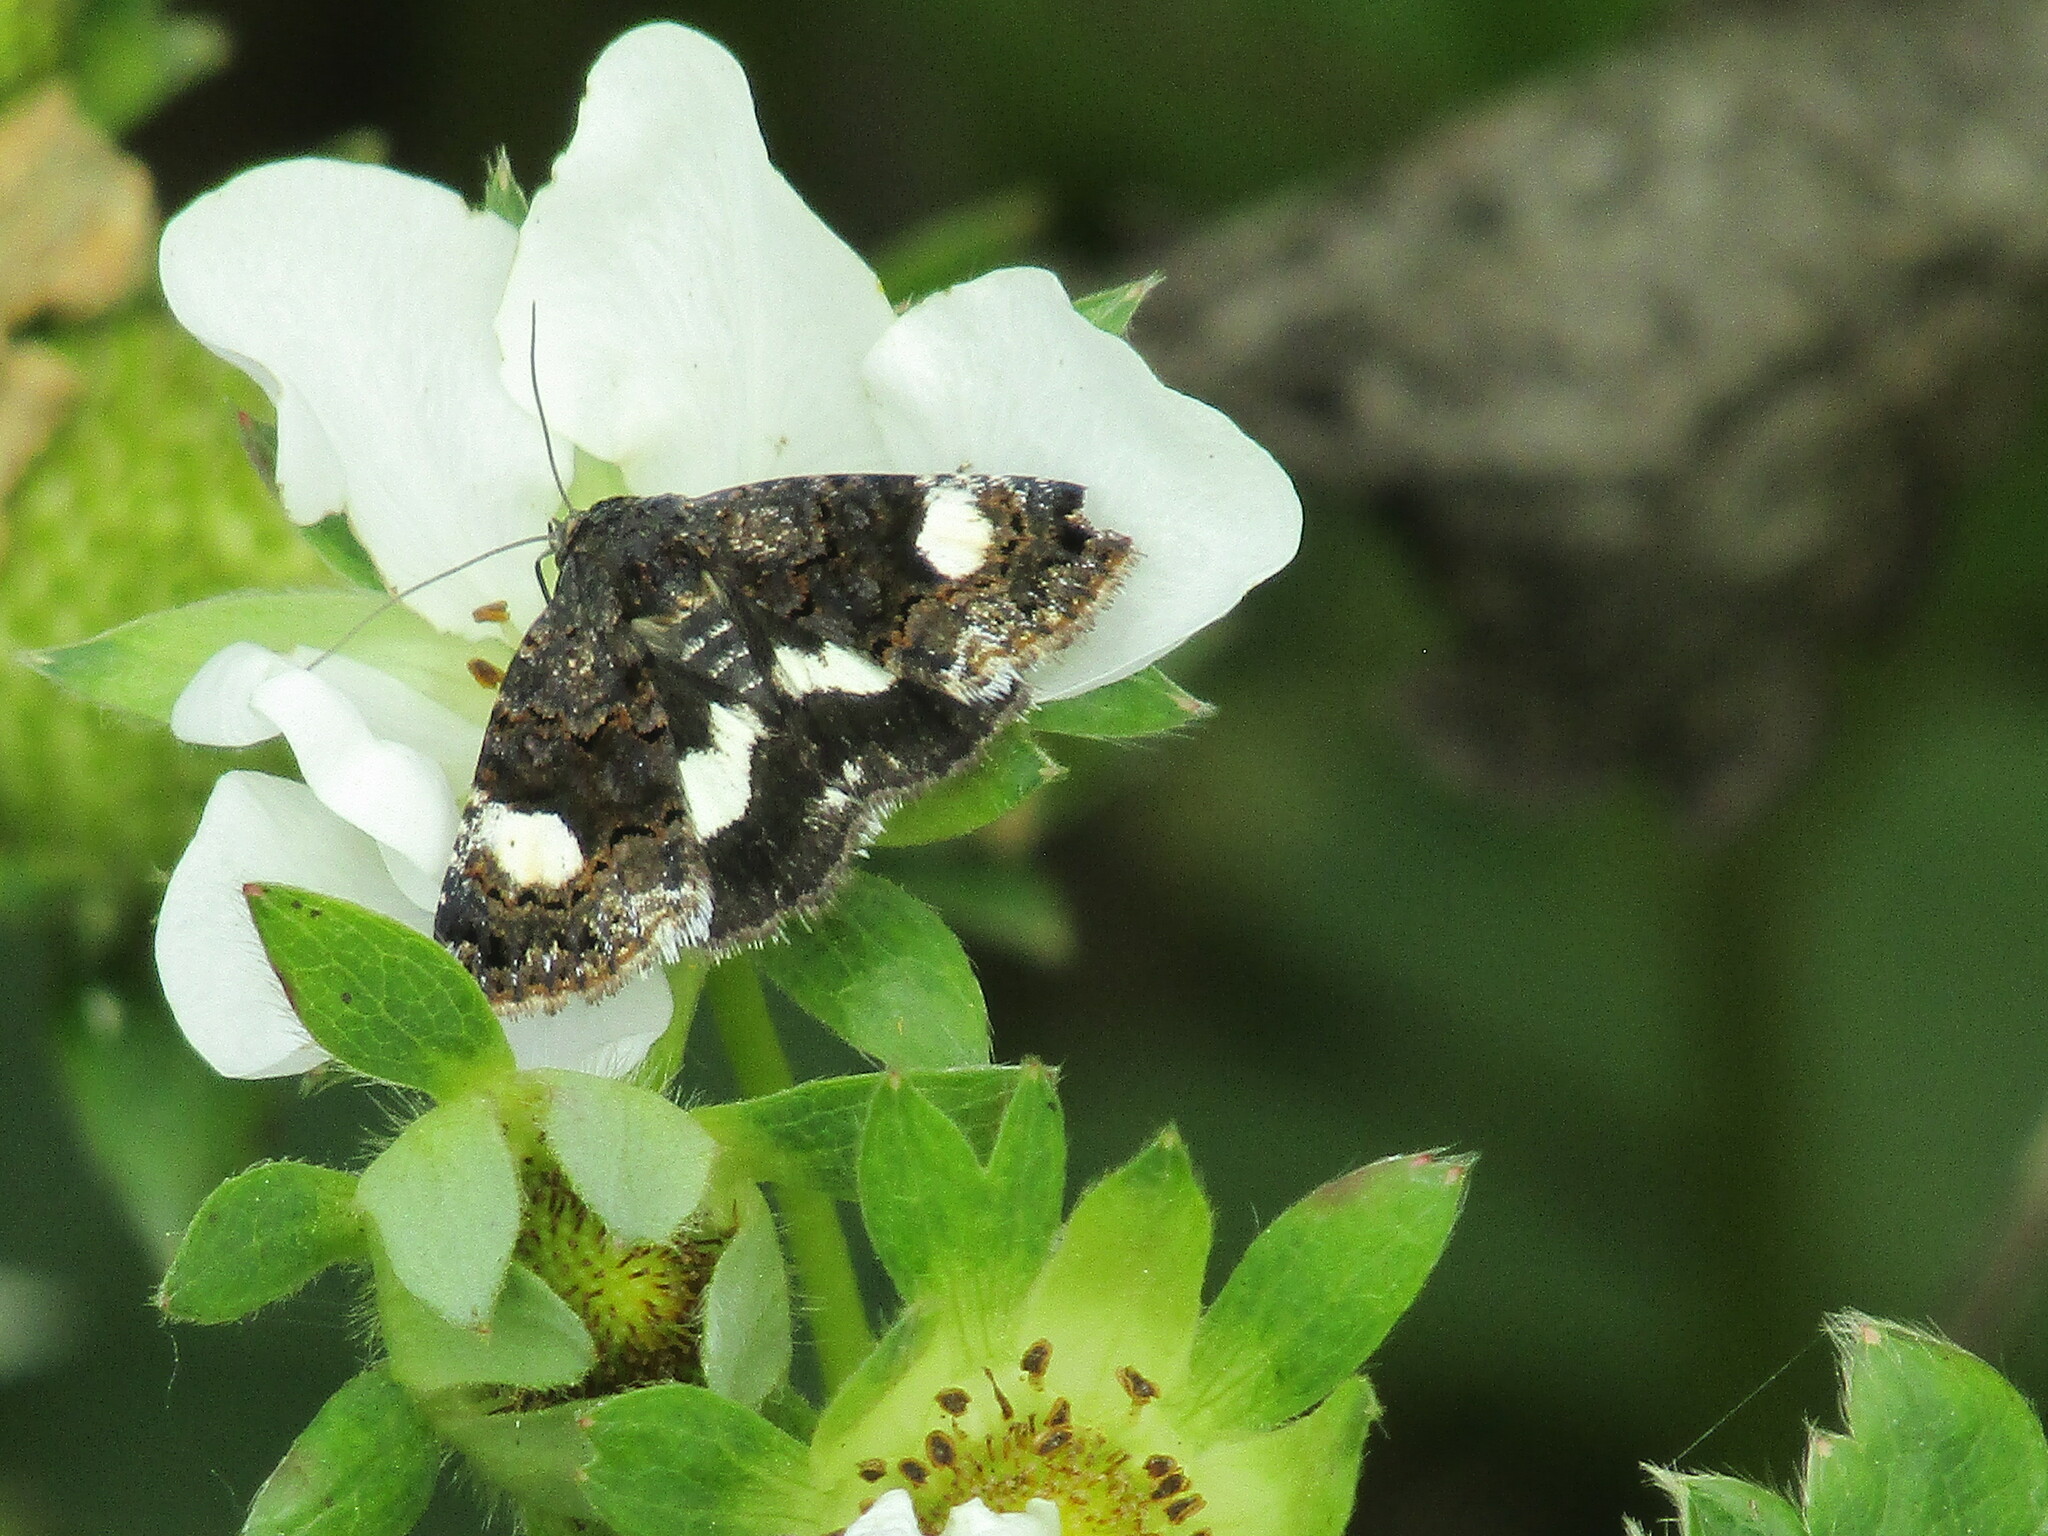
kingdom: Animalia
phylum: Arthropoda
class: Insecta
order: Lepidoptera
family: Erebidae
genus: Tyta
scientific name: Tyta luctuosa
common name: Four-spotted
